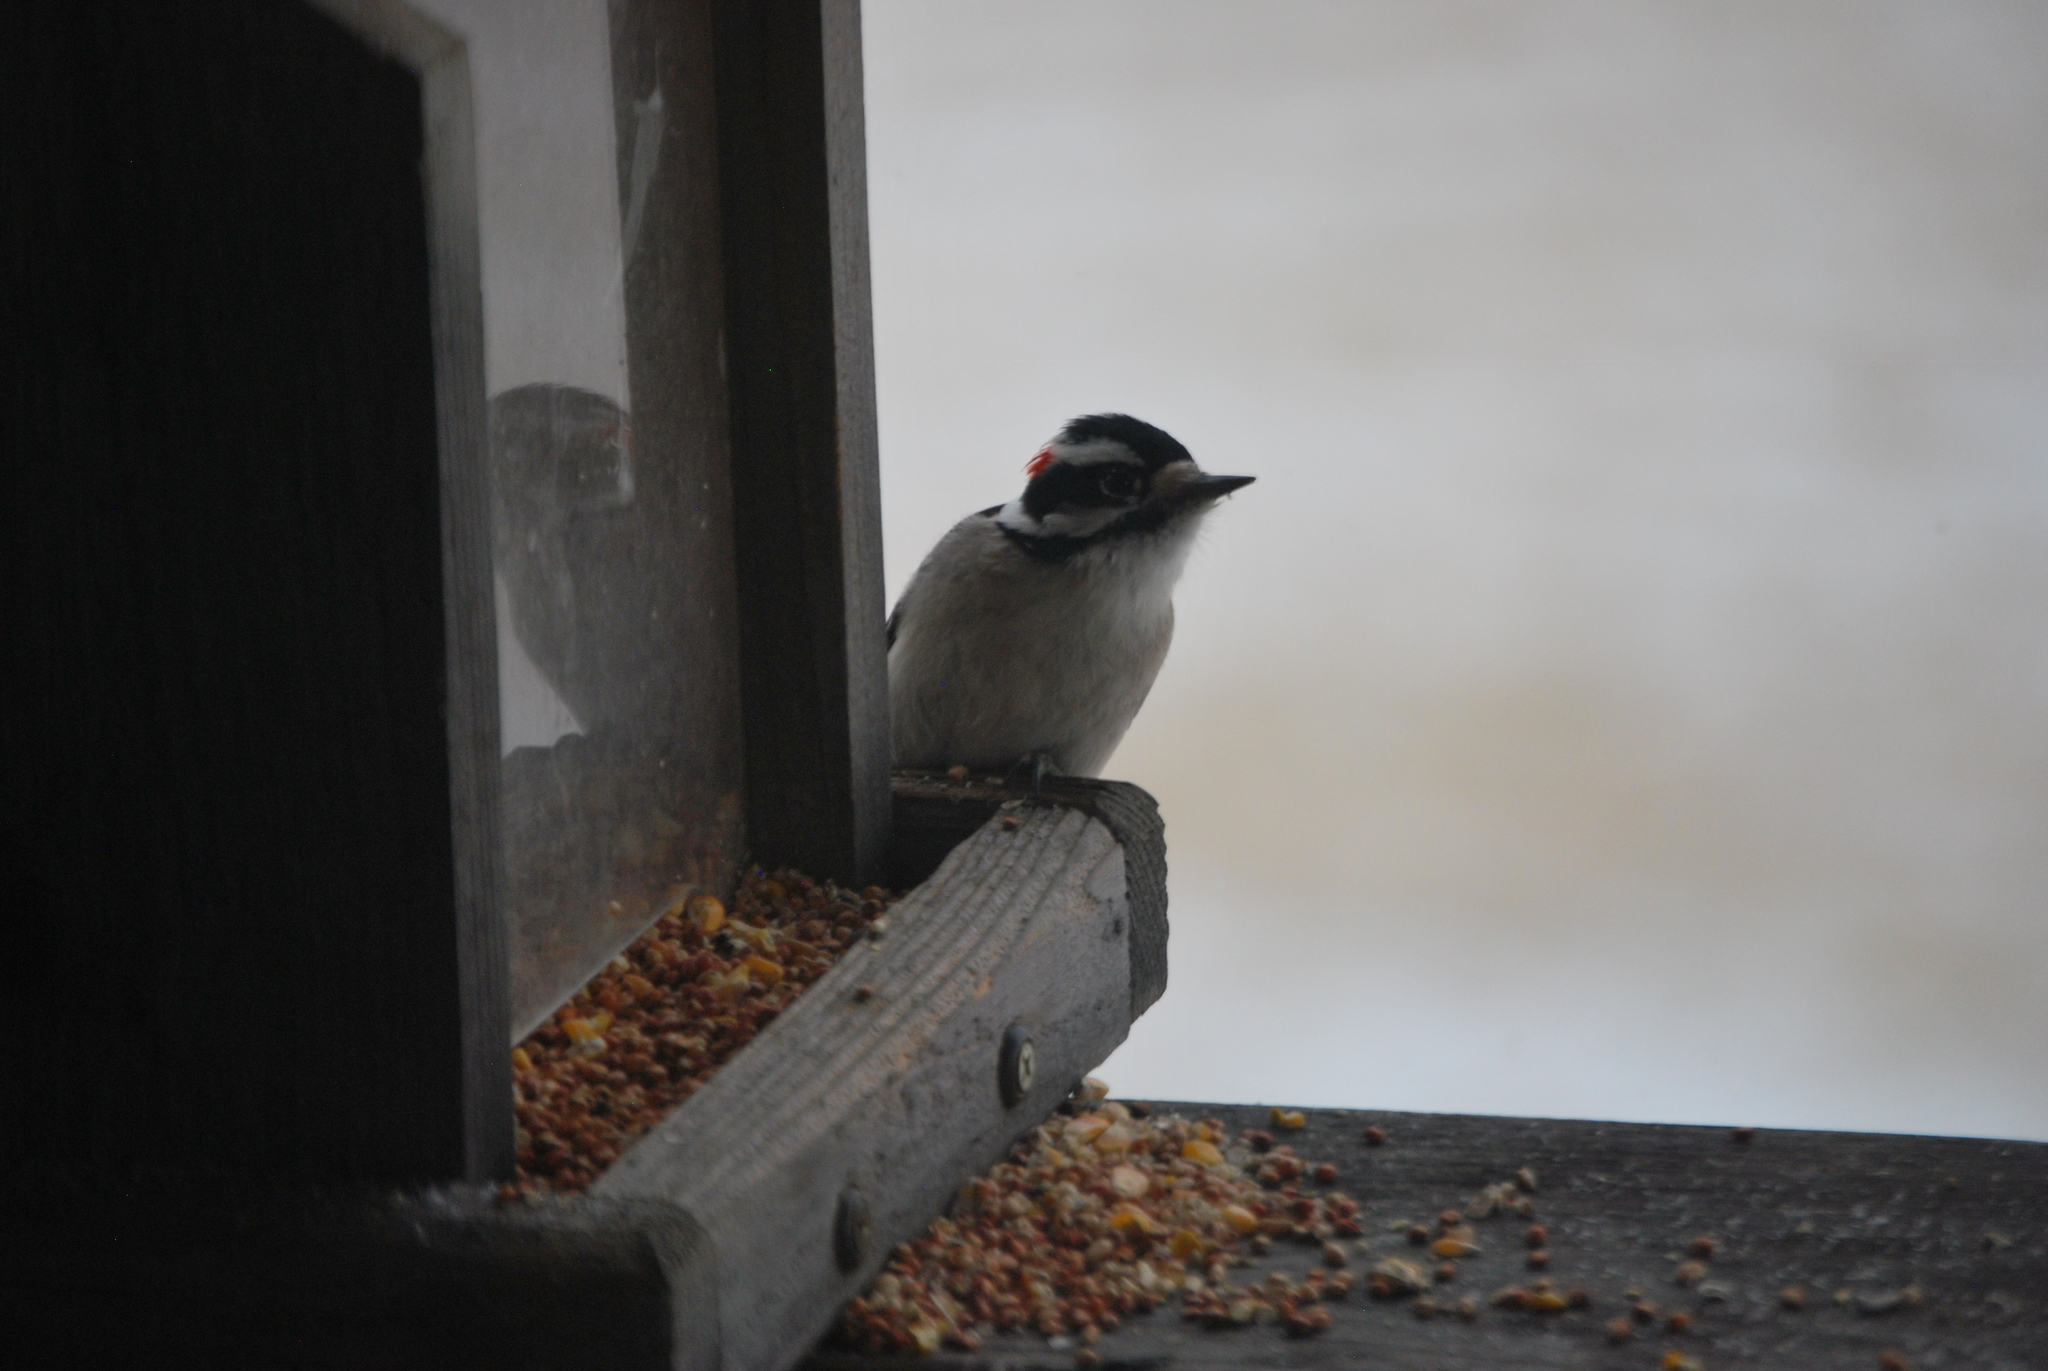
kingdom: Animalia
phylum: Chordata
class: Aves
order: Piciformes
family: Picidae
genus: Dryobates
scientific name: Dryobates pubescens
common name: Downy woodpecker
